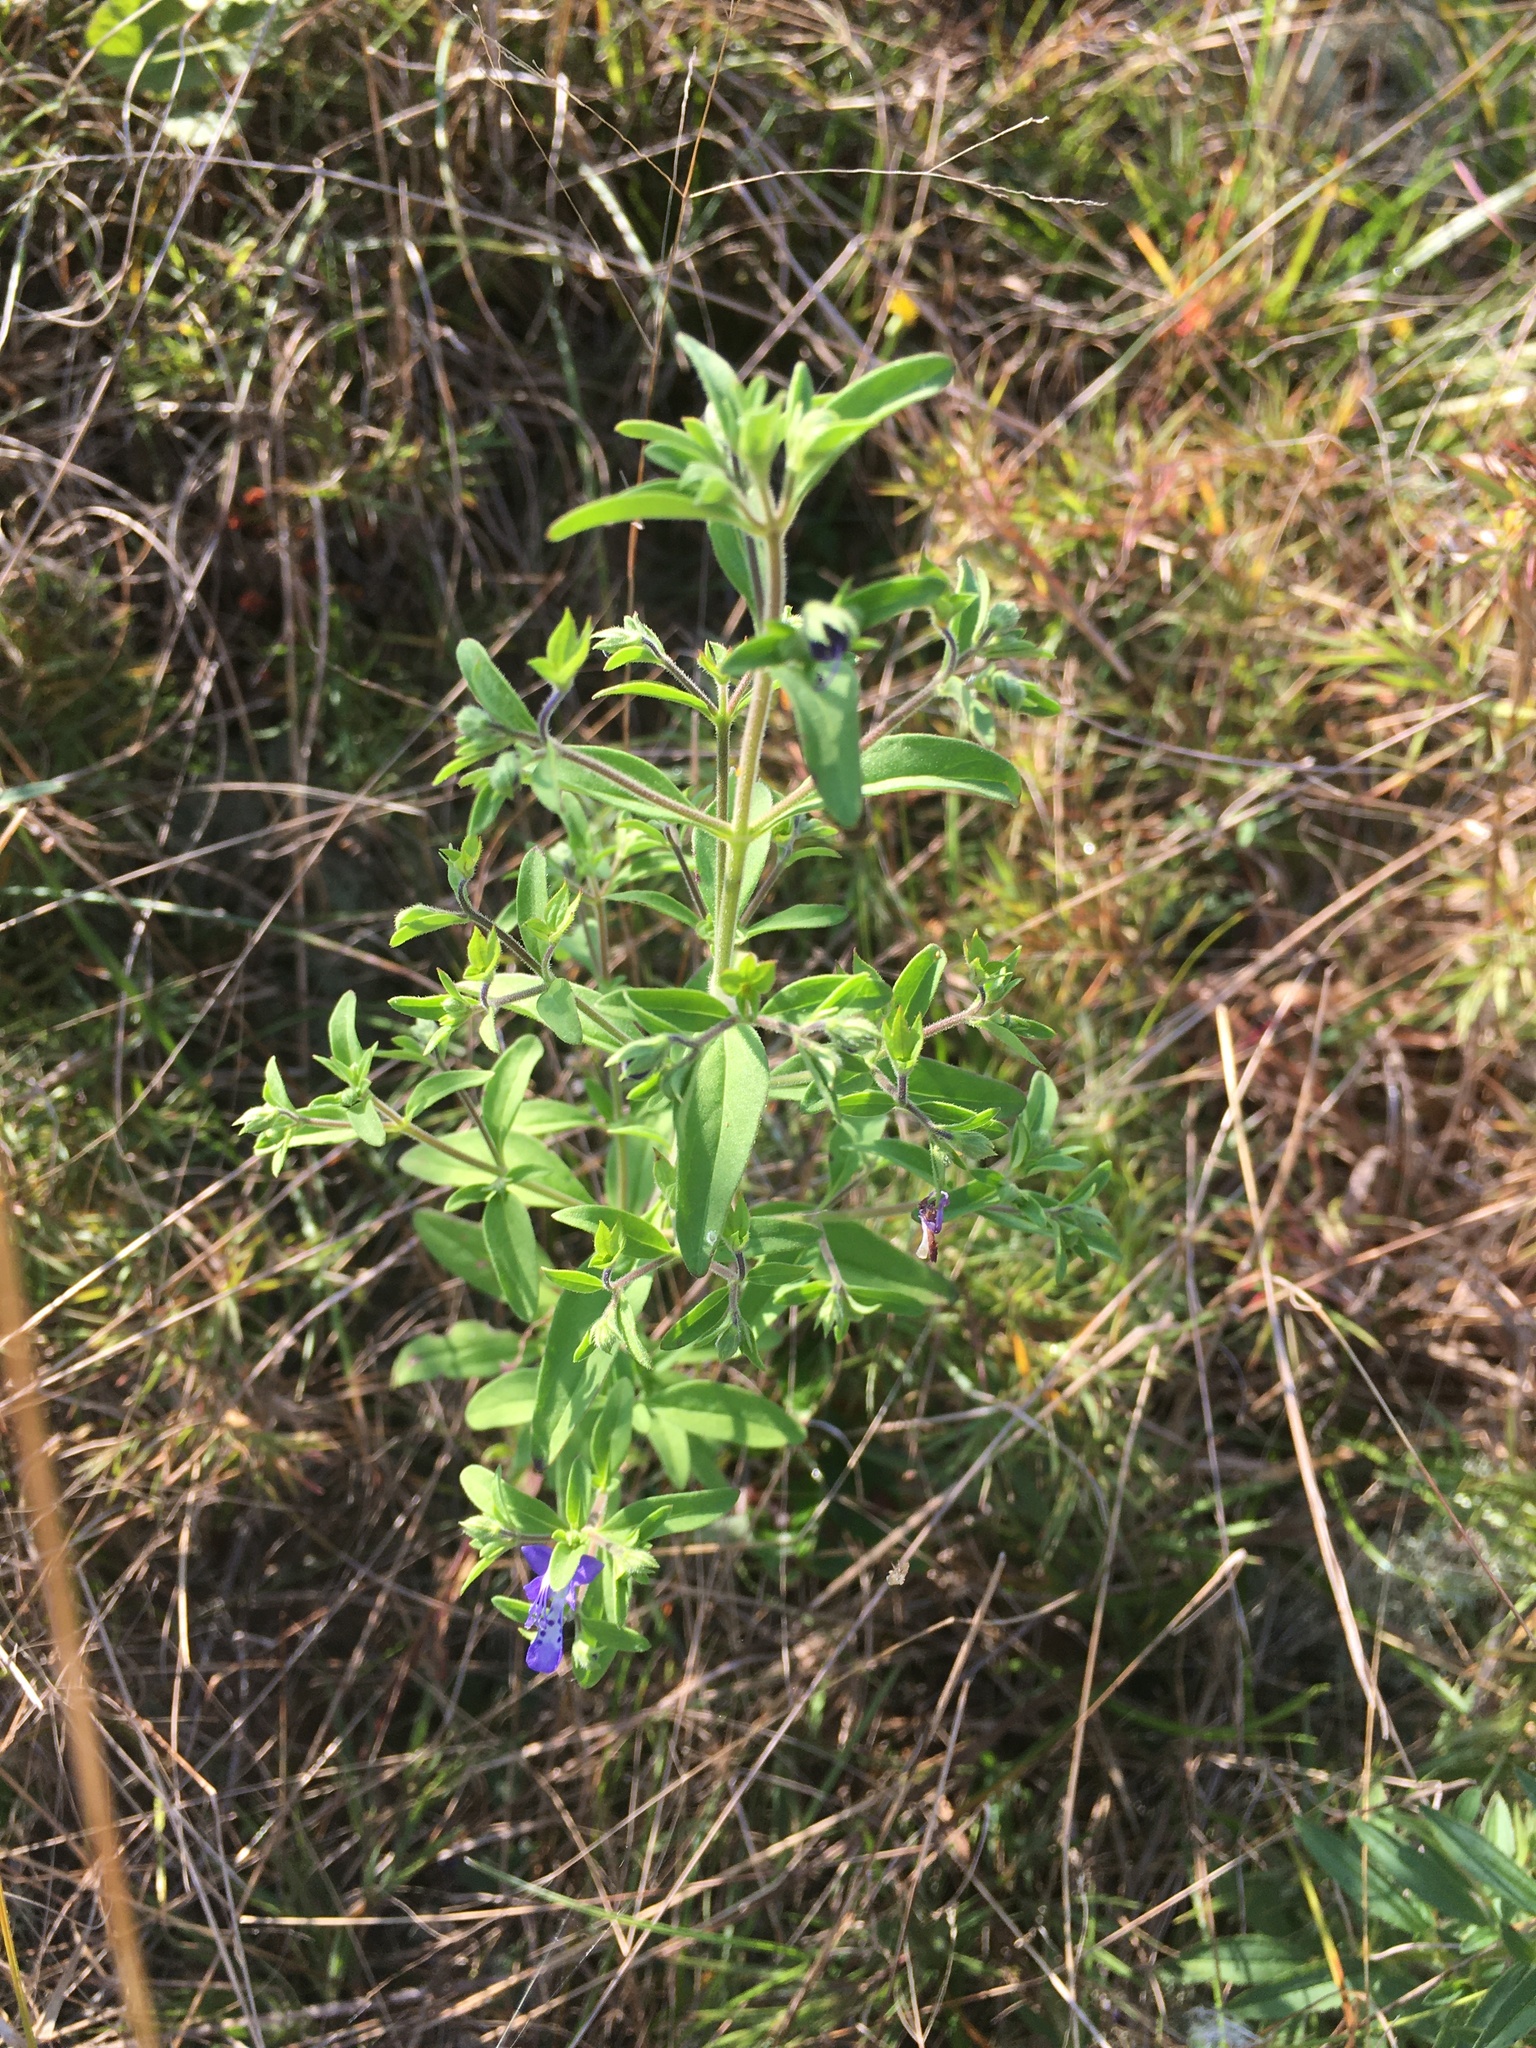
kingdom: Plantae
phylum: Tracheophyta
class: Magnoliopsida
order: Lamiales
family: Lamiaceae
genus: Trichostema
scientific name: Trichostema dichotomum
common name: Bastard pennyroyal
